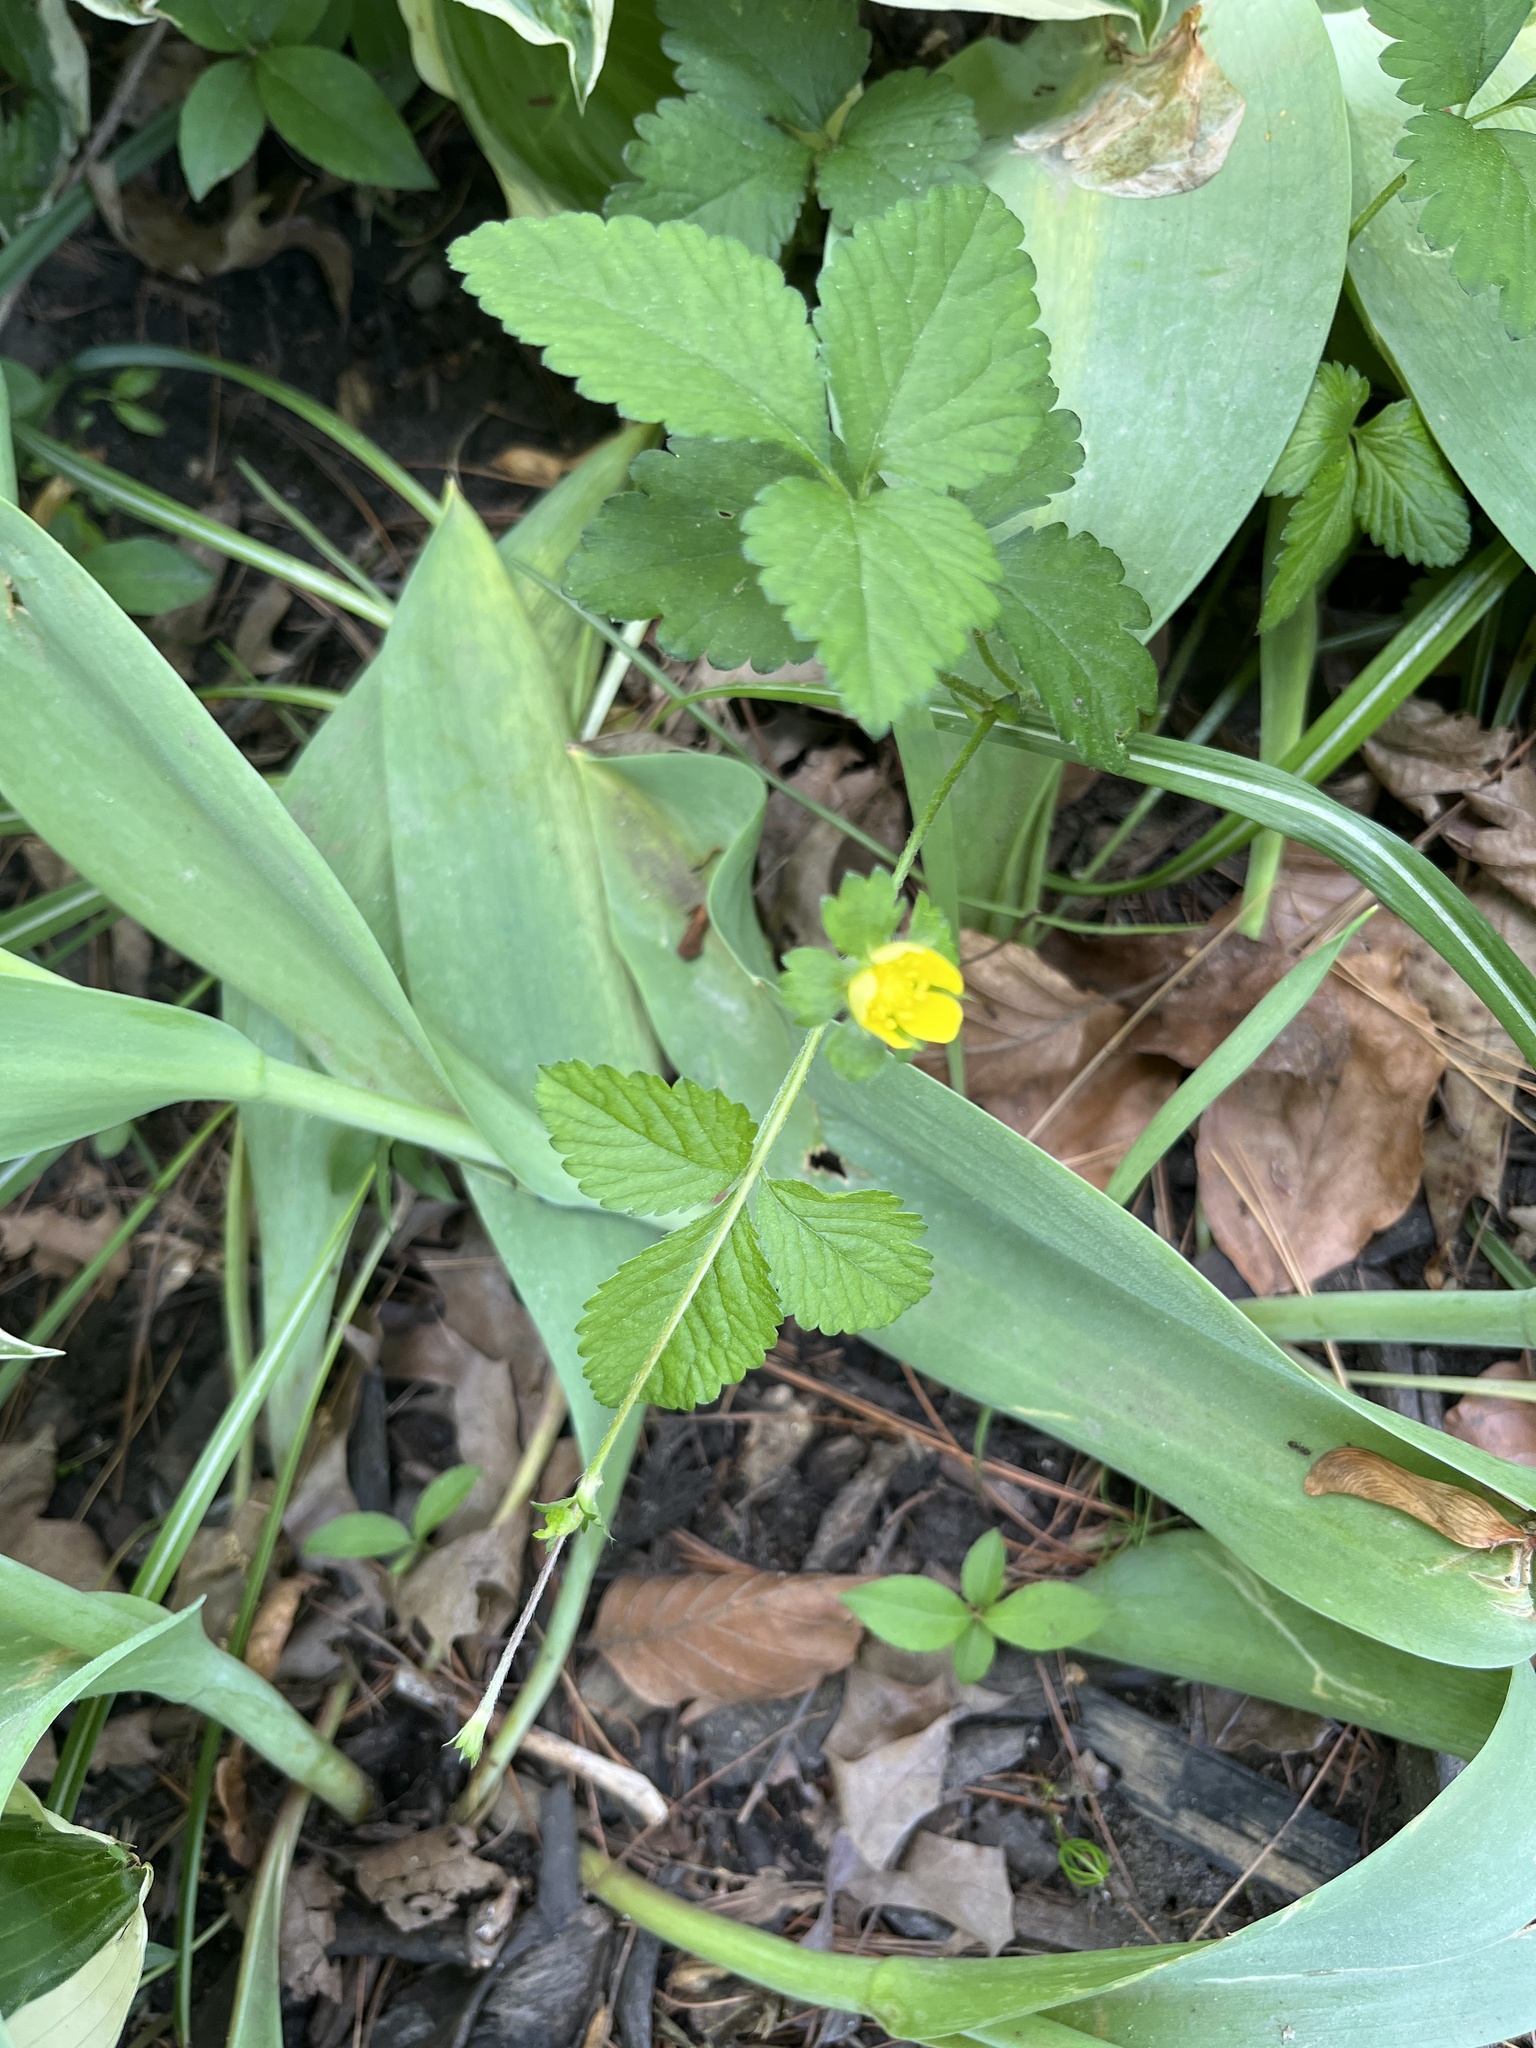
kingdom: Plantae
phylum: Tracheophyta
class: Magnoliopsida
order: Rosales
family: Rosaceae
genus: Potentilla
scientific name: Potentilla indica
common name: Yellow-flowered strawberry
